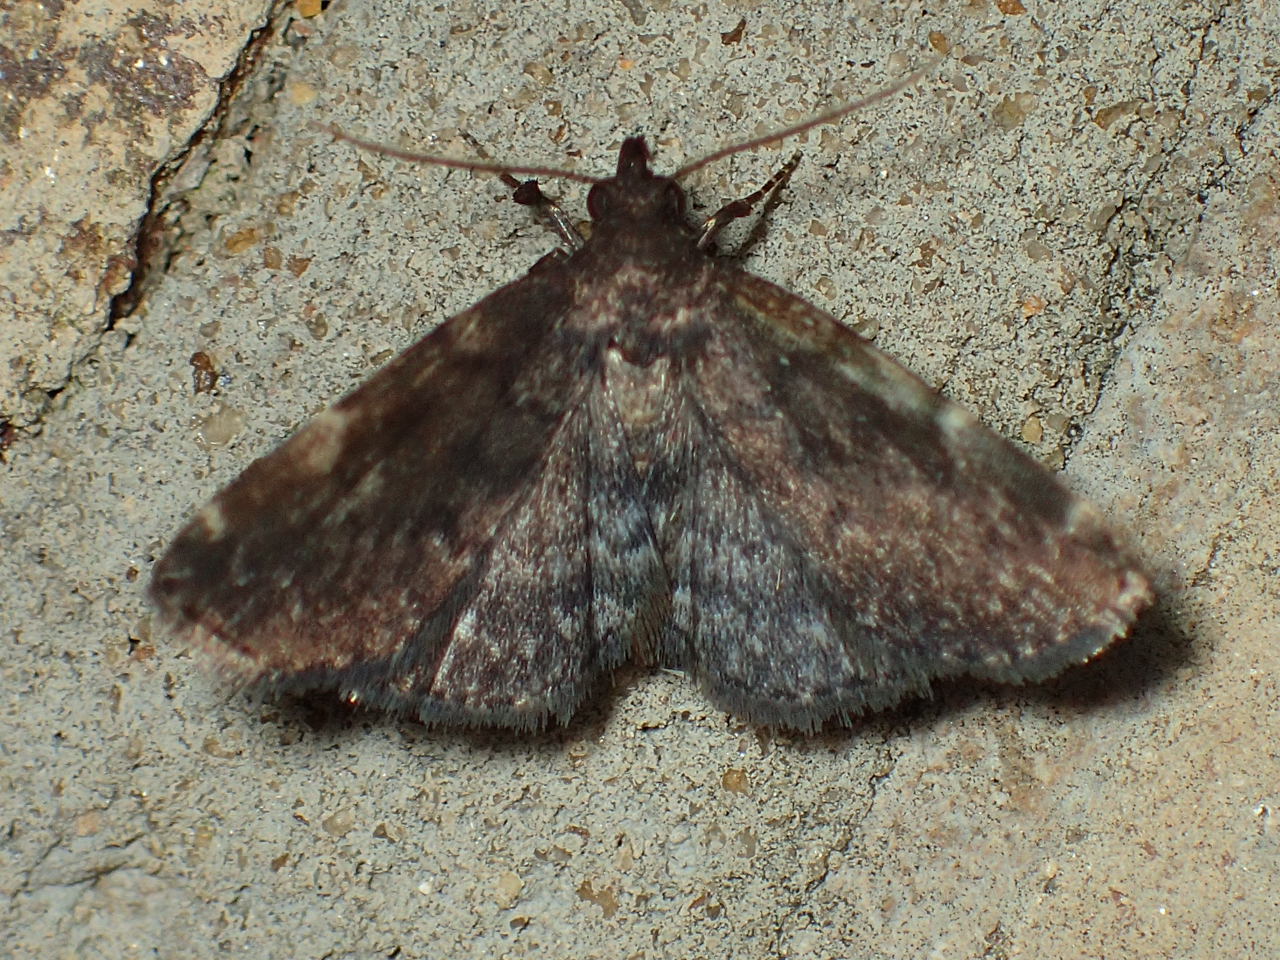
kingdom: Animalia
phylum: Arthropoda
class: Insecta
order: Lepidoptera
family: Erebidae
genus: Idia
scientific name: Idia forbesii
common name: Forbes' idia moth
